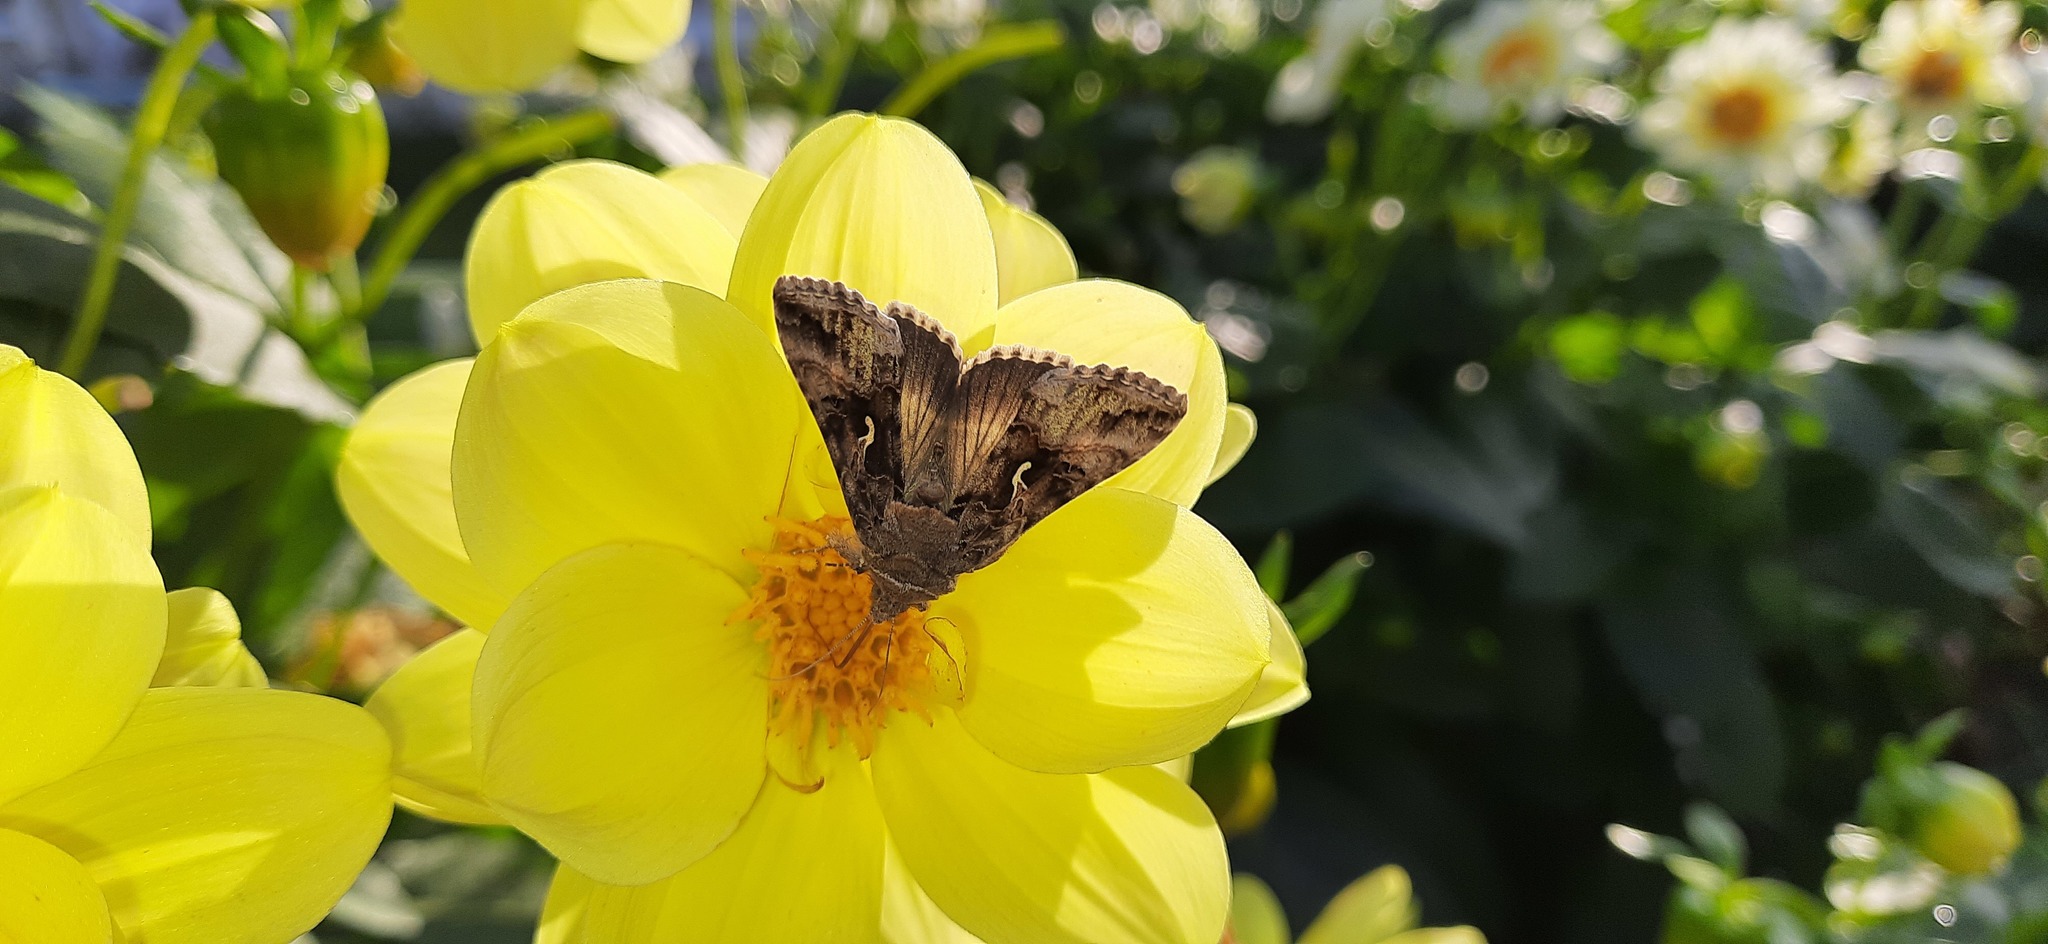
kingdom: Animalia
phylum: Arthropoda
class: Insecta
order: Lepidoptera
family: Noctuidae
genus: Autographa
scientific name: Autographa gamma
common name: Silver y
